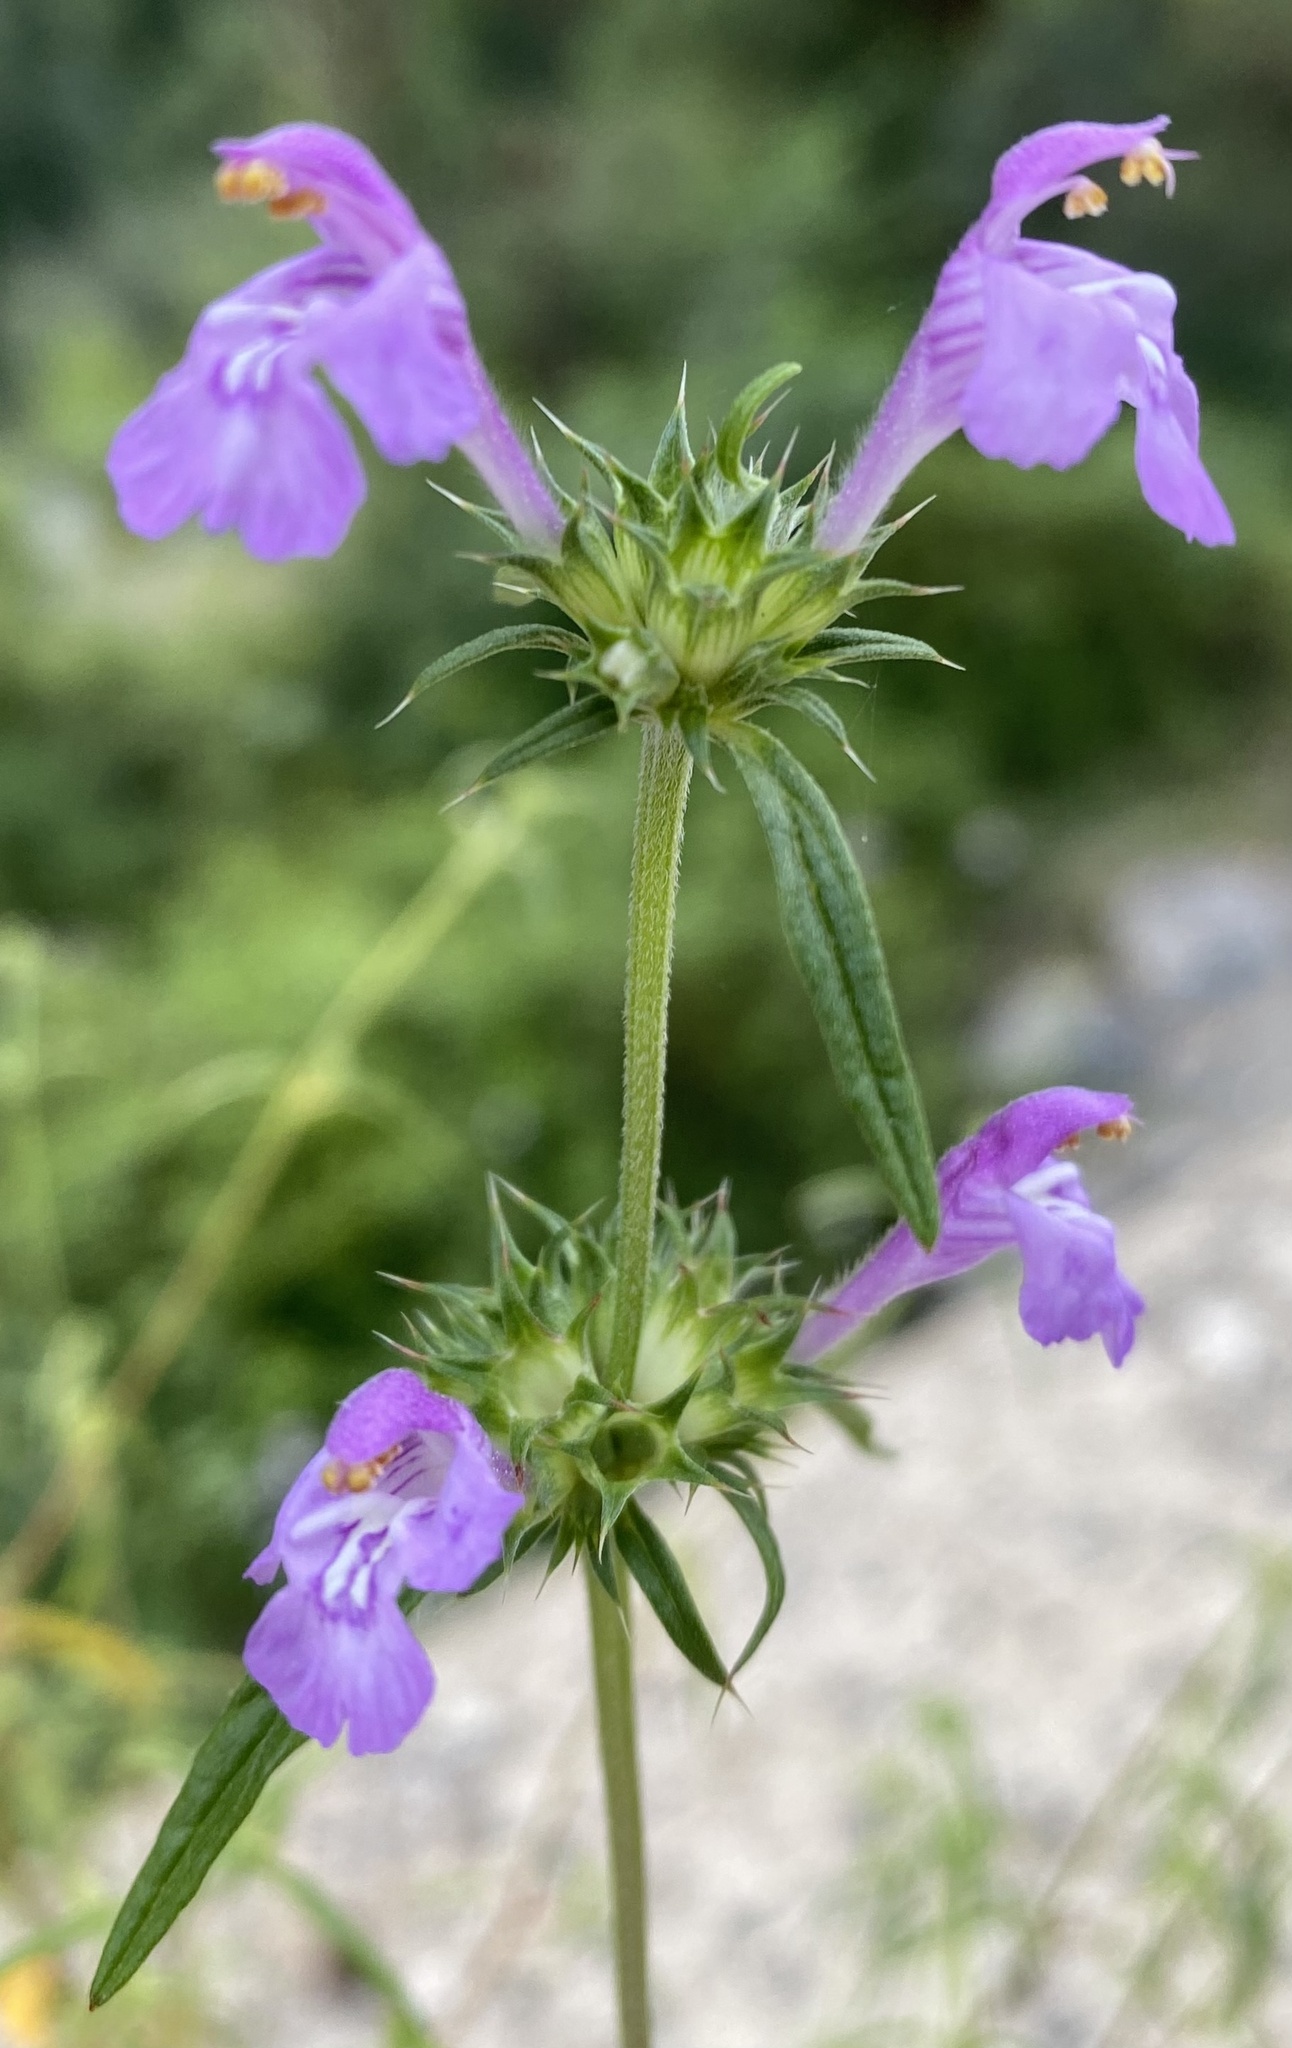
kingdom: Plantae
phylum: Tracheophyta
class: Magnoliopsida
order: Lamiales
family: Lamiaceae
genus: Galeopsis
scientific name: Galeopsis angustifolia
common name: Red hemp-nettle
